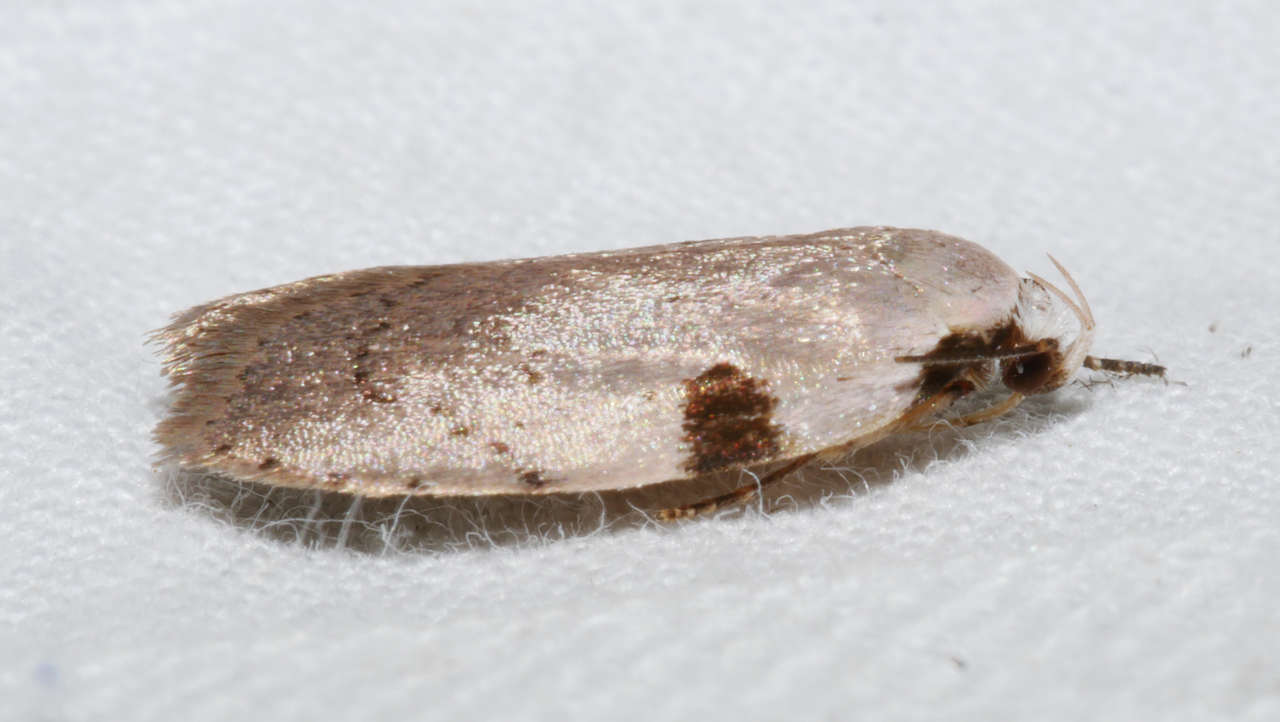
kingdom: Animalia
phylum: Arthropoda
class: Insecta
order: Lepidoptera
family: Oecophoridae
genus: Zonopetala
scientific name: Zonopetala quadripustulella
